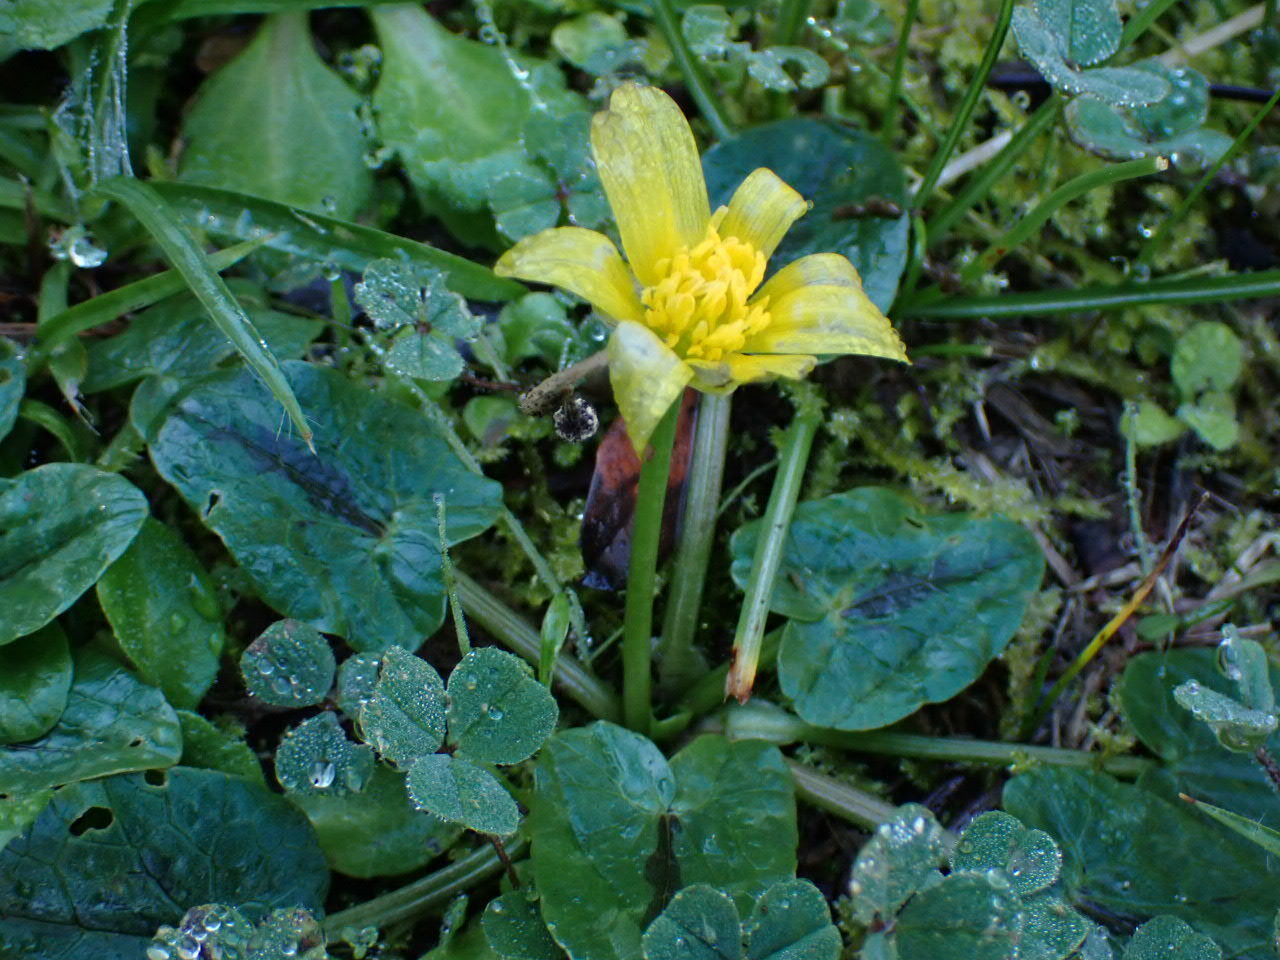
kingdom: Plantae
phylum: Tracheophyta
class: Magnoliopsida
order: Ranunculales
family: Ranunculaceae
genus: Ficaria
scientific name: Ficaria verna
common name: Lesser celandine
